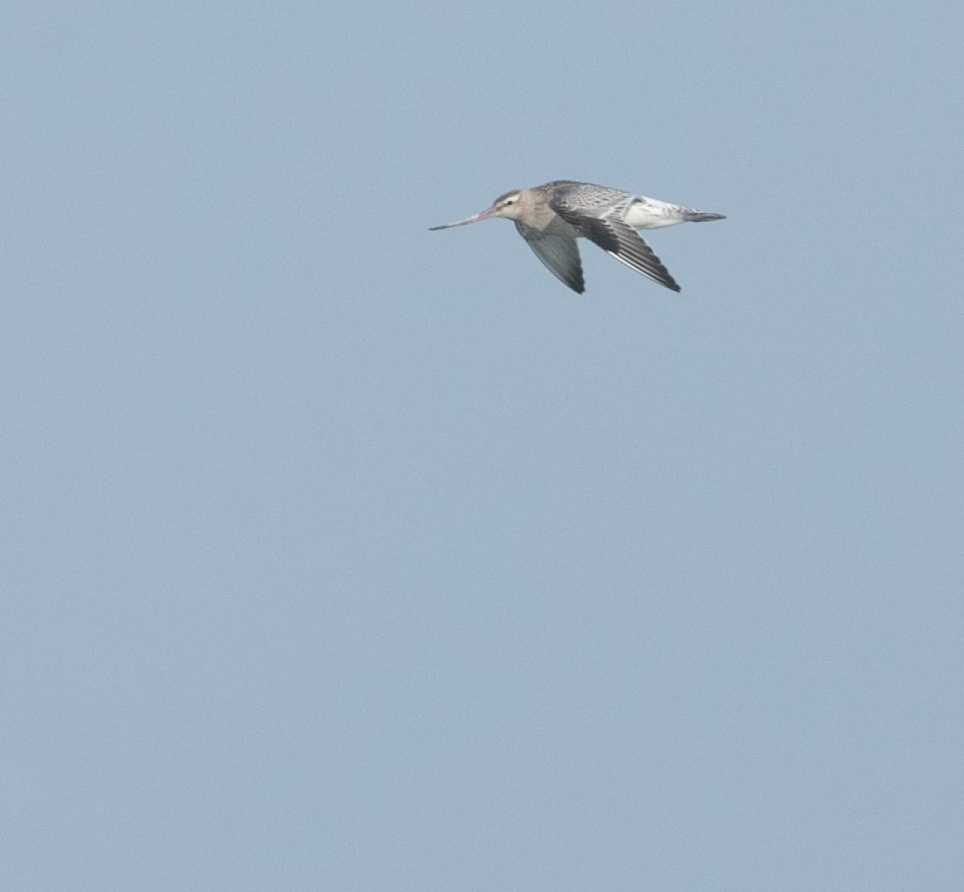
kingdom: Animalia
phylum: Chordata
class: Aves
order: Charadriiformes
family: Scolopacidae
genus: Limosa
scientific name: Limosa lapponica
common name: Bar-tailed godwit
